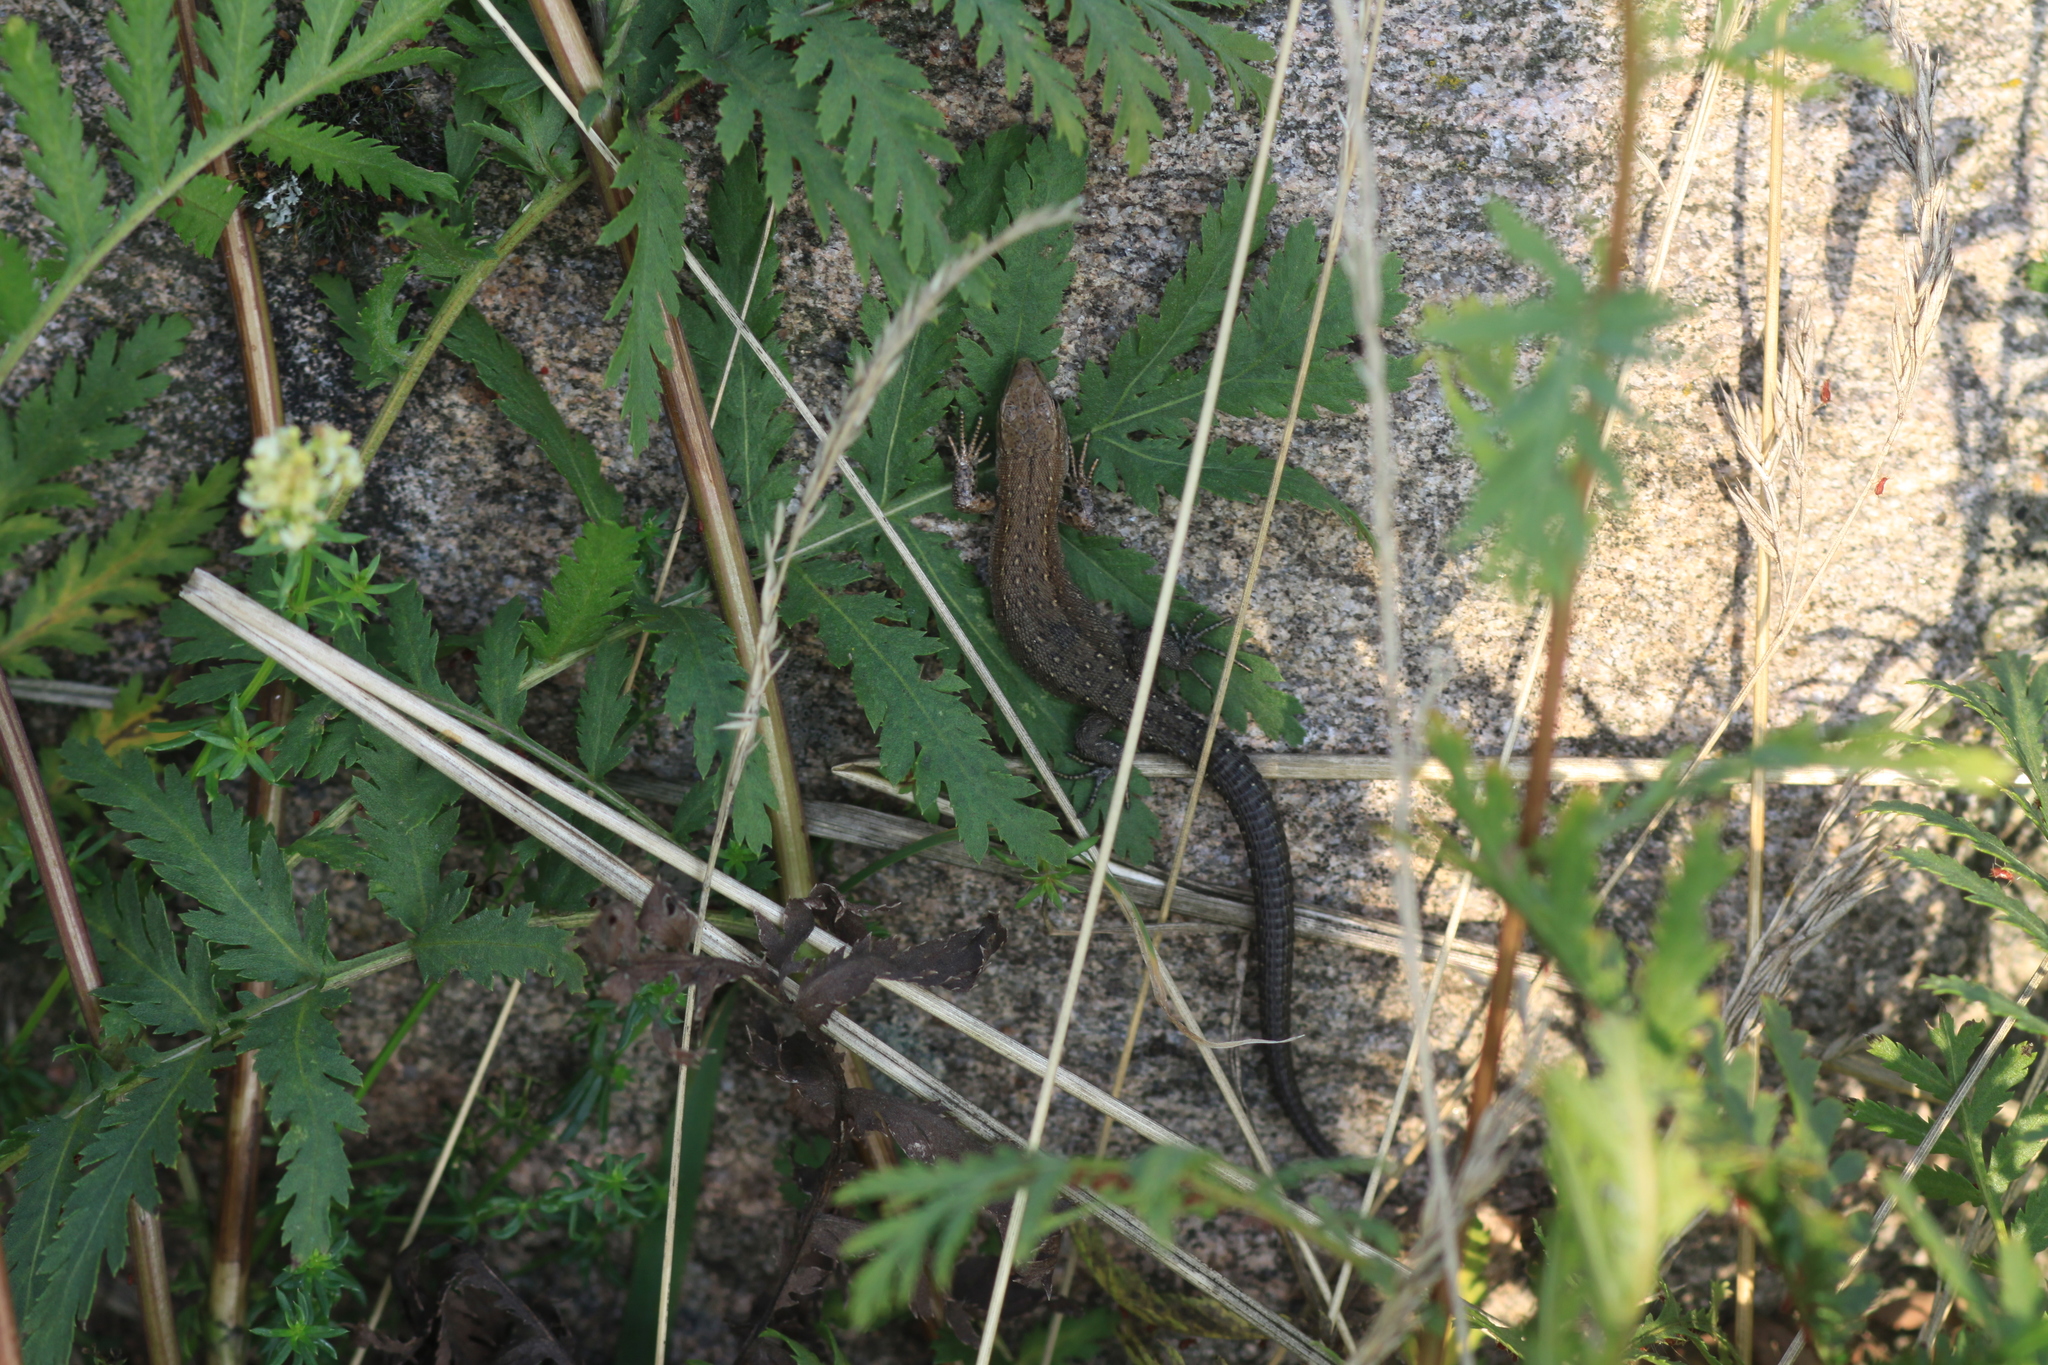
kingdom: Animalia
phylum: Chordata
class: Squamata
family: Lacertidae
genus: Zootoca
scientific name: Zootoca vivipara
